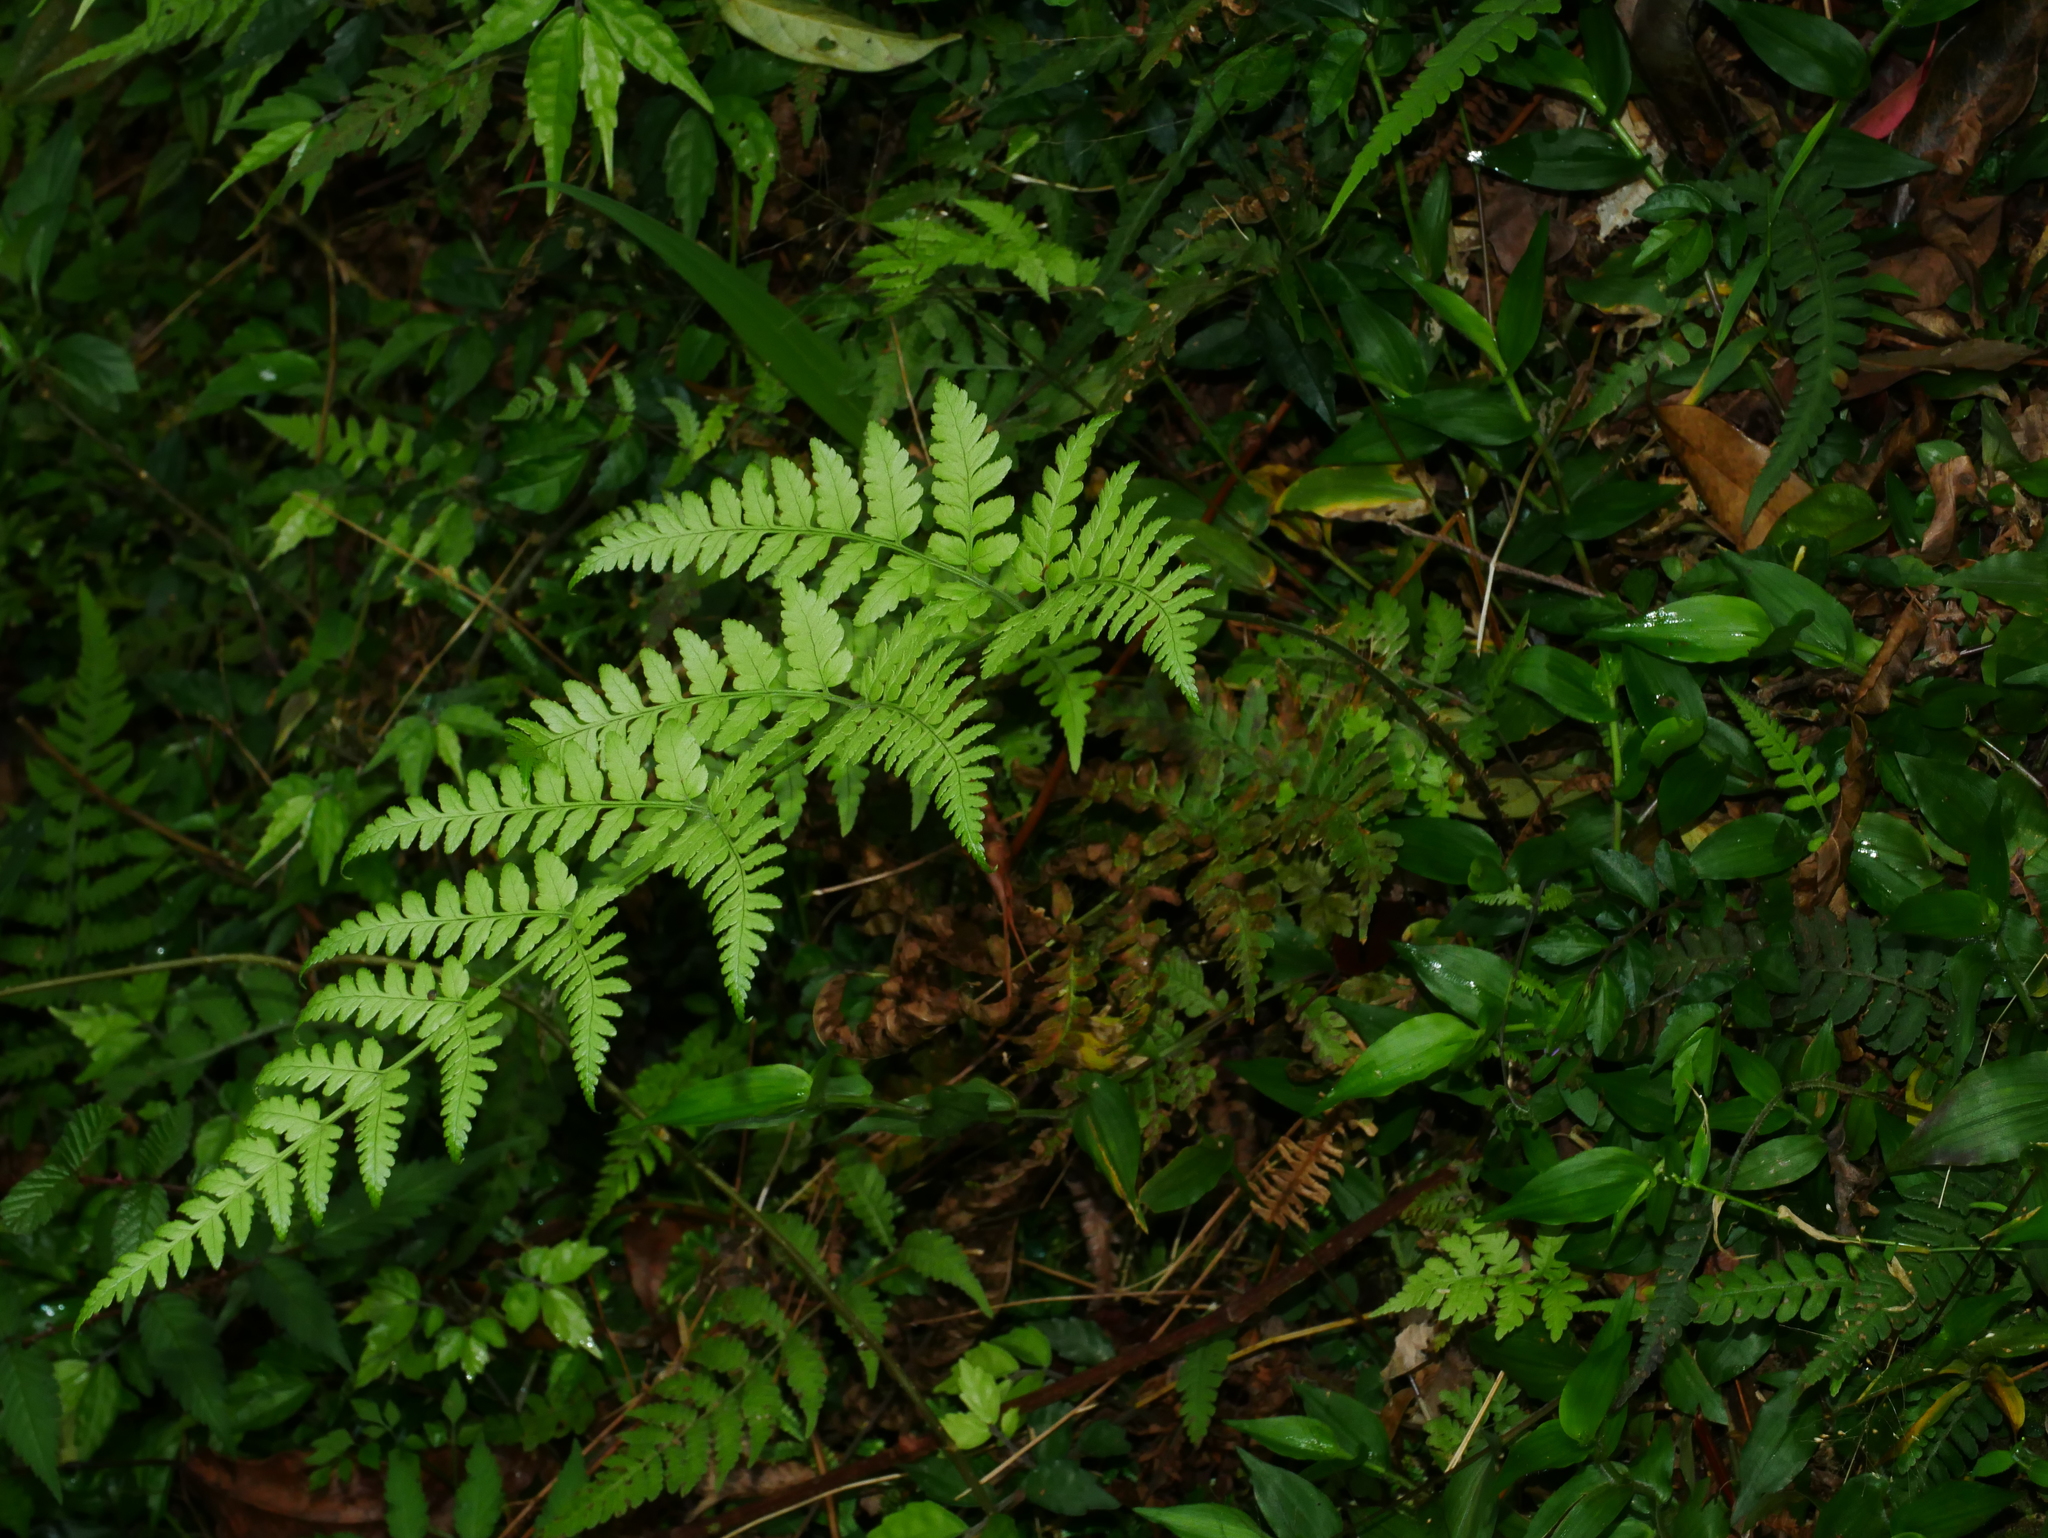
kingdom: Plantae
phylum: Tracheophyta
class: Polypodiopsida
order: Polypodiales
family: Dryopteridaceae
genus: Dryopteris
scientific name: Dryopteris sparsa
